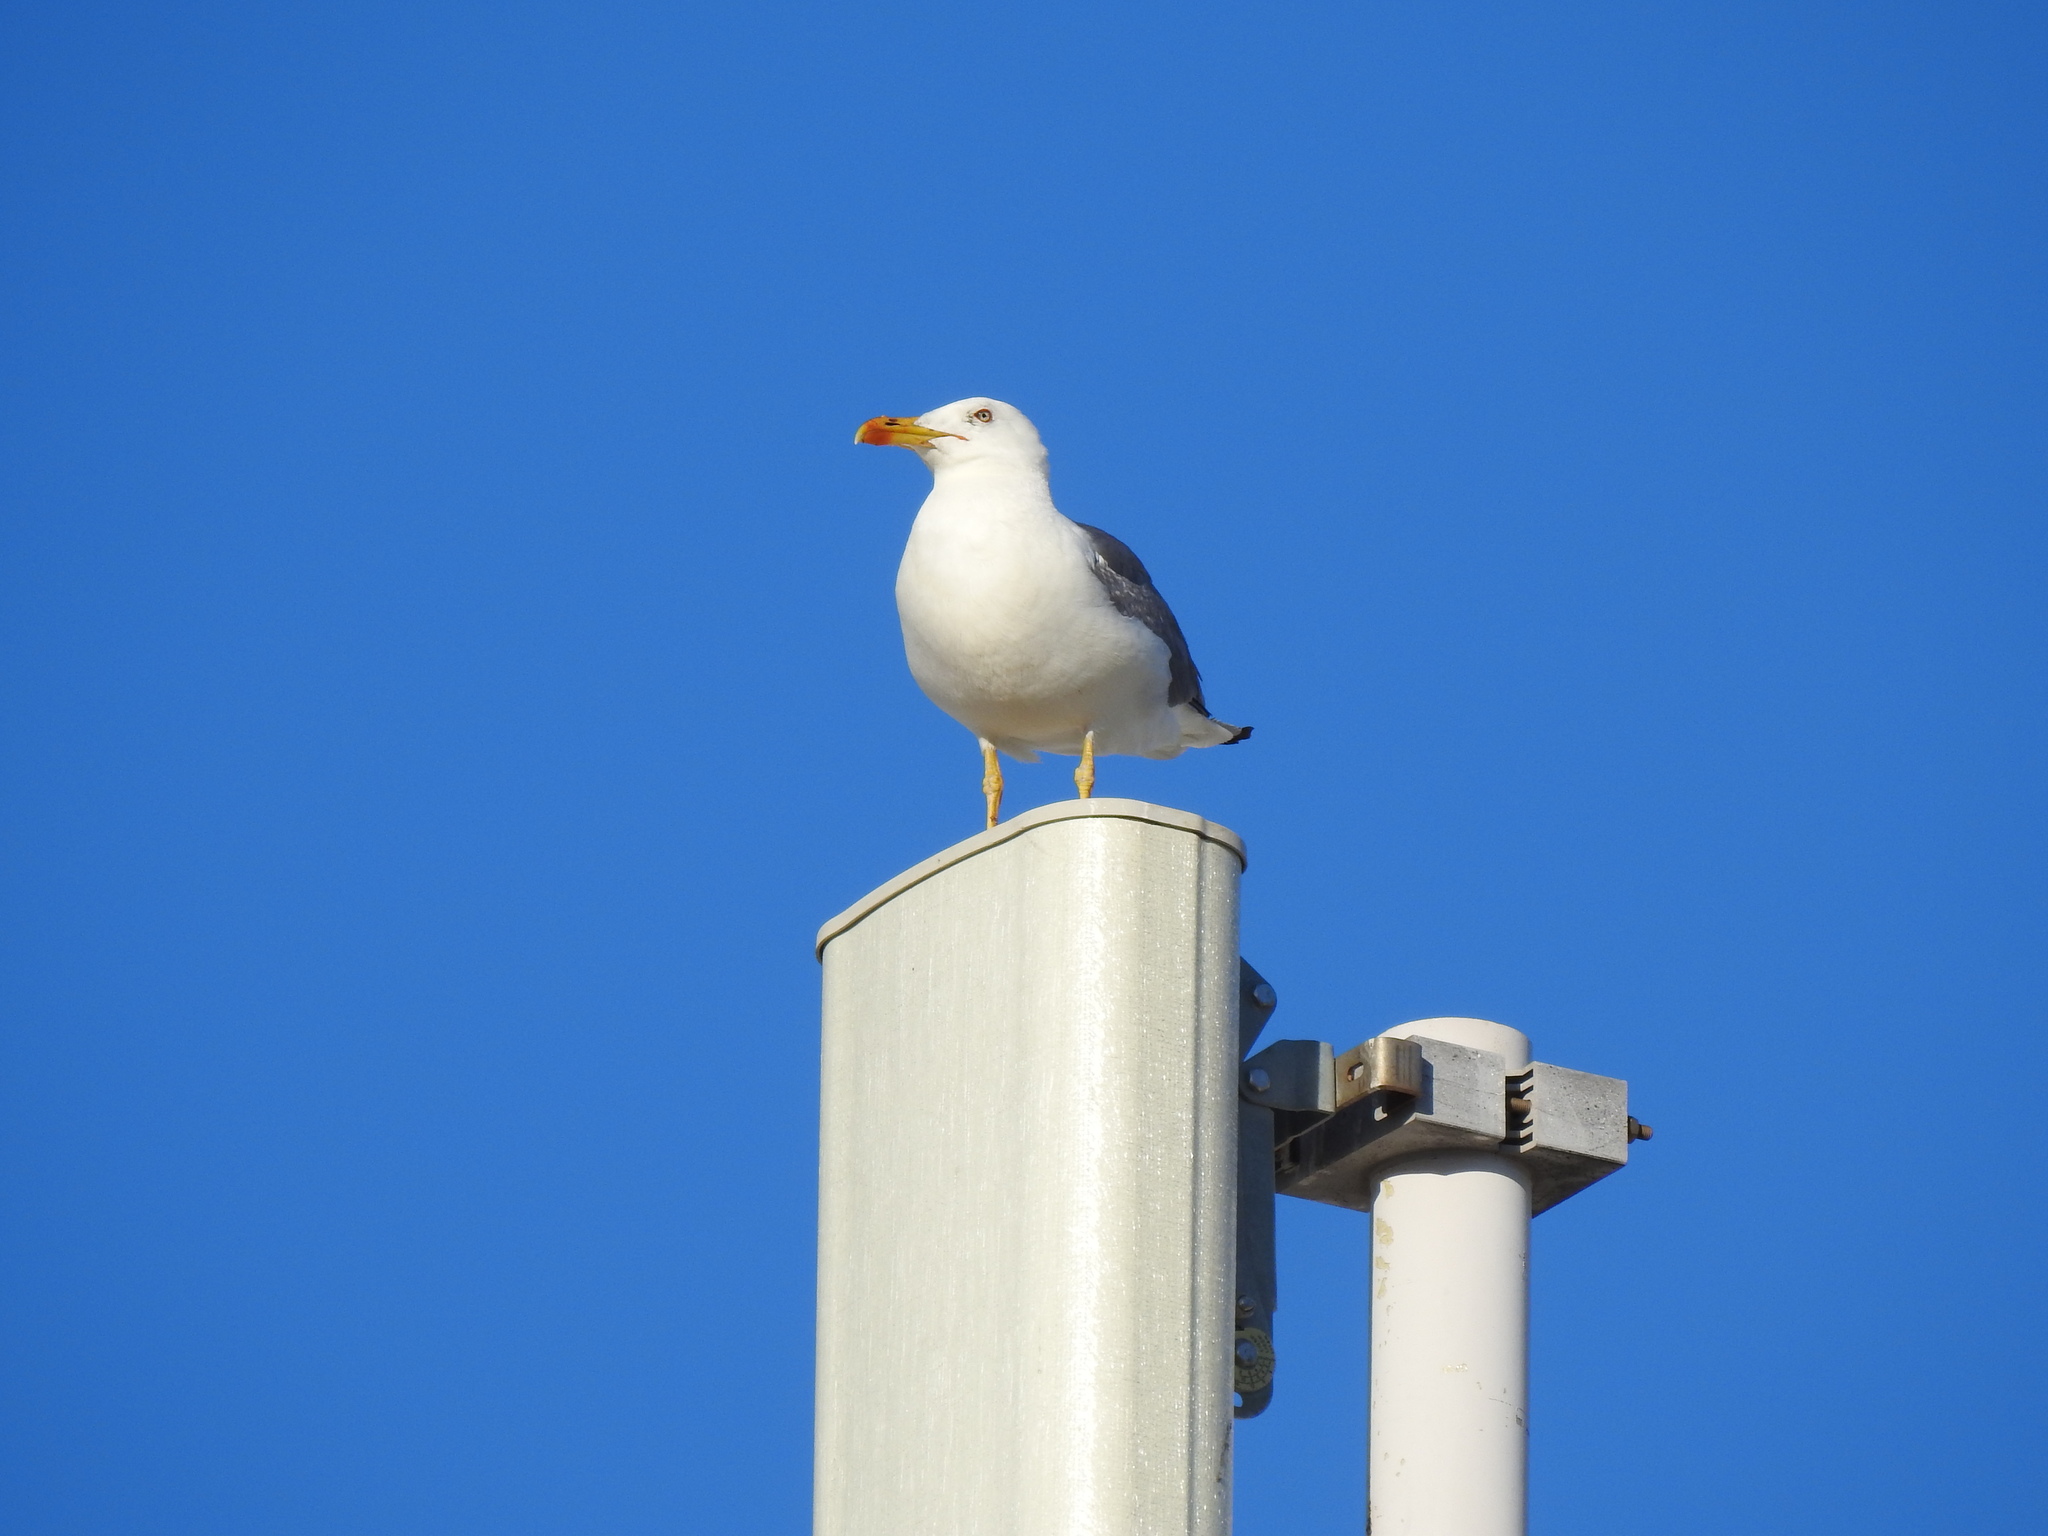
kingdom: Animalia
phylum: Chordata
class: Aves
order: Charadriiformes
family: Laridae
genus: Larus
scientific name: Larus michahellis
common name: Yellow-legged gull
